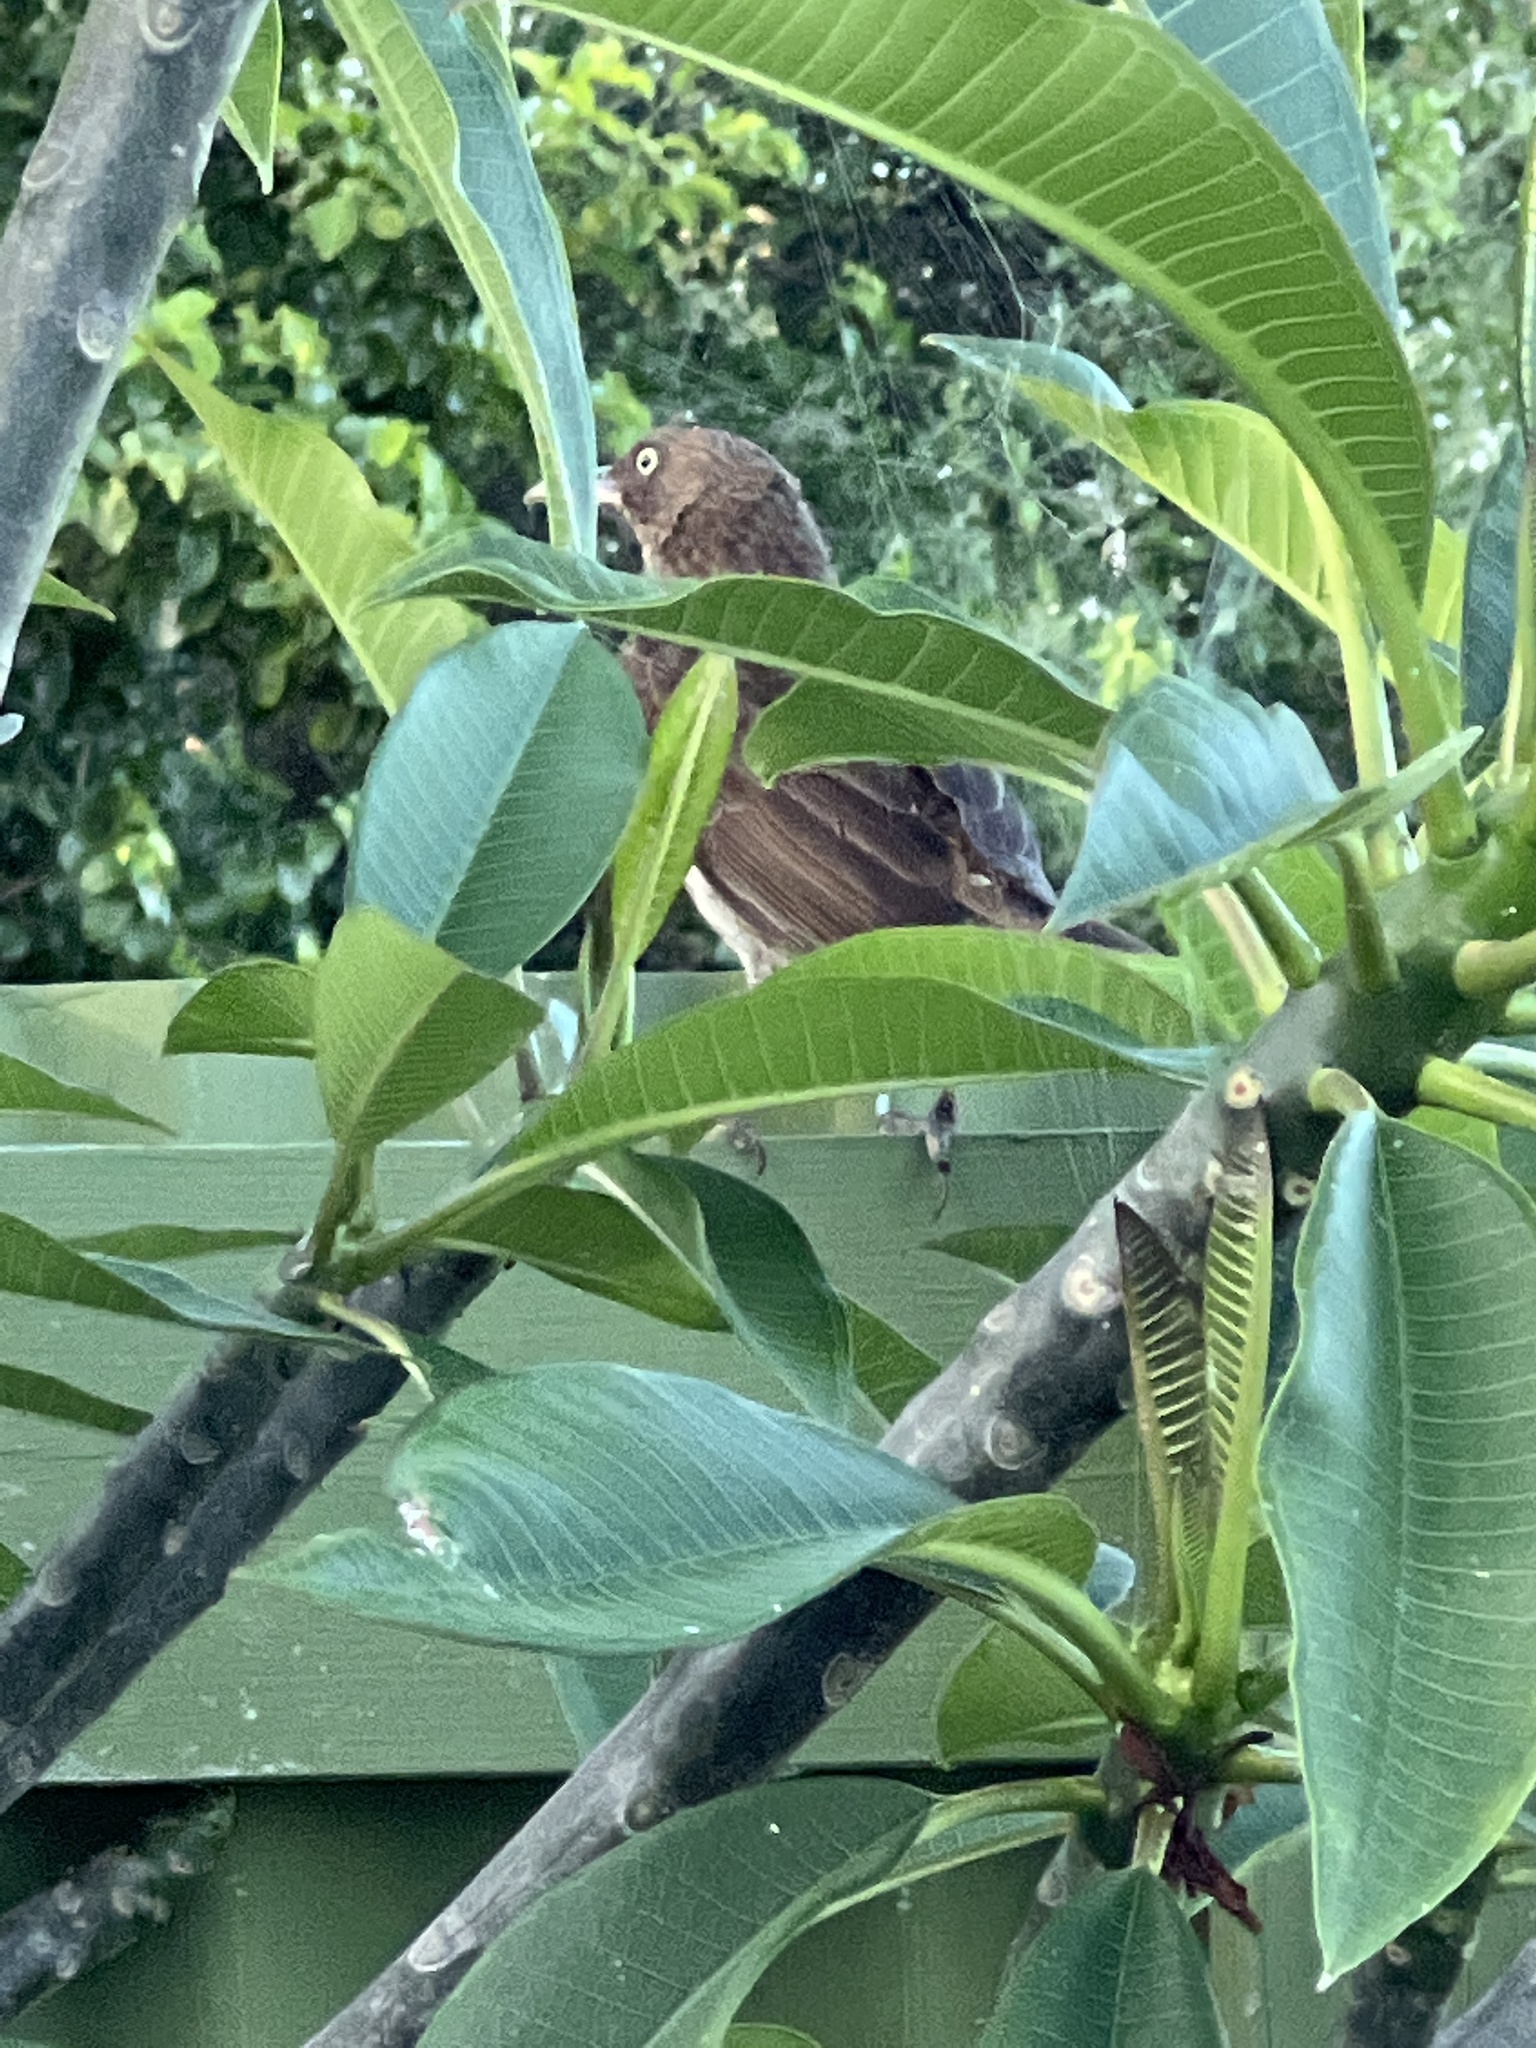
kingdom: Animalia
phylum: Chordata
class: Aves
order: Passeriformes
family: Mimidae
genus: Margarops
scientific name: Margarops fuscatus
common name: Pearly-eyed thrasher
